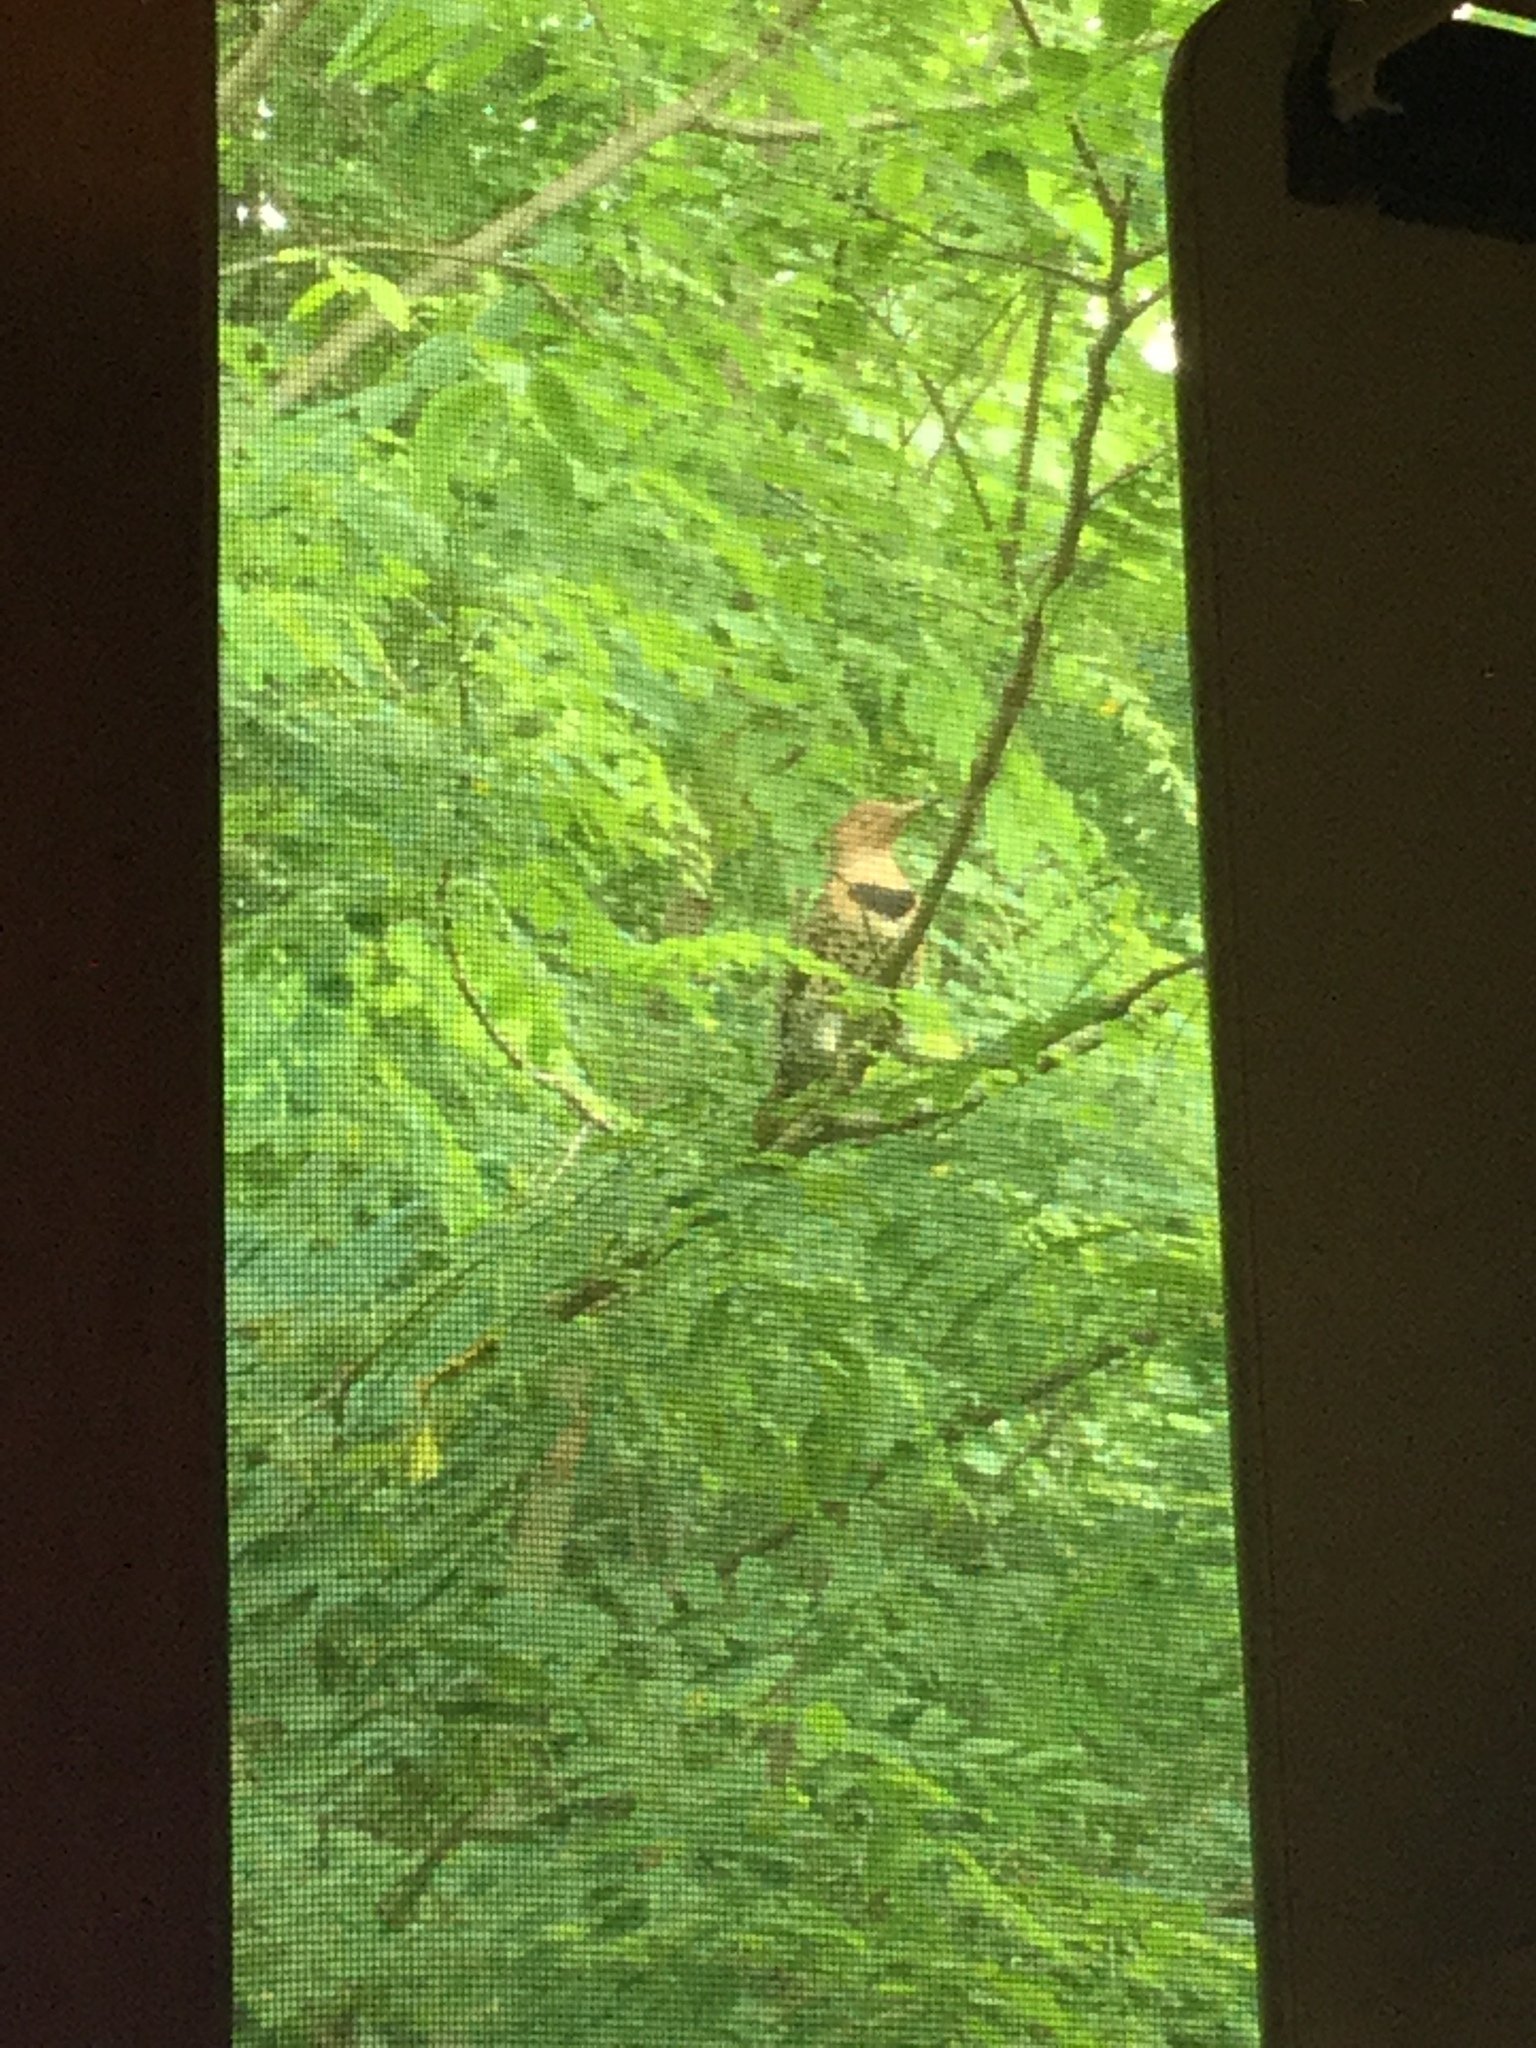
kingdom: Animalia
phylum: Chordata
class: Aves
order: Piciformes
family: Picidae
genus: Colaptes
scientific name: Colaptes auratus
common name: Northern flicker
